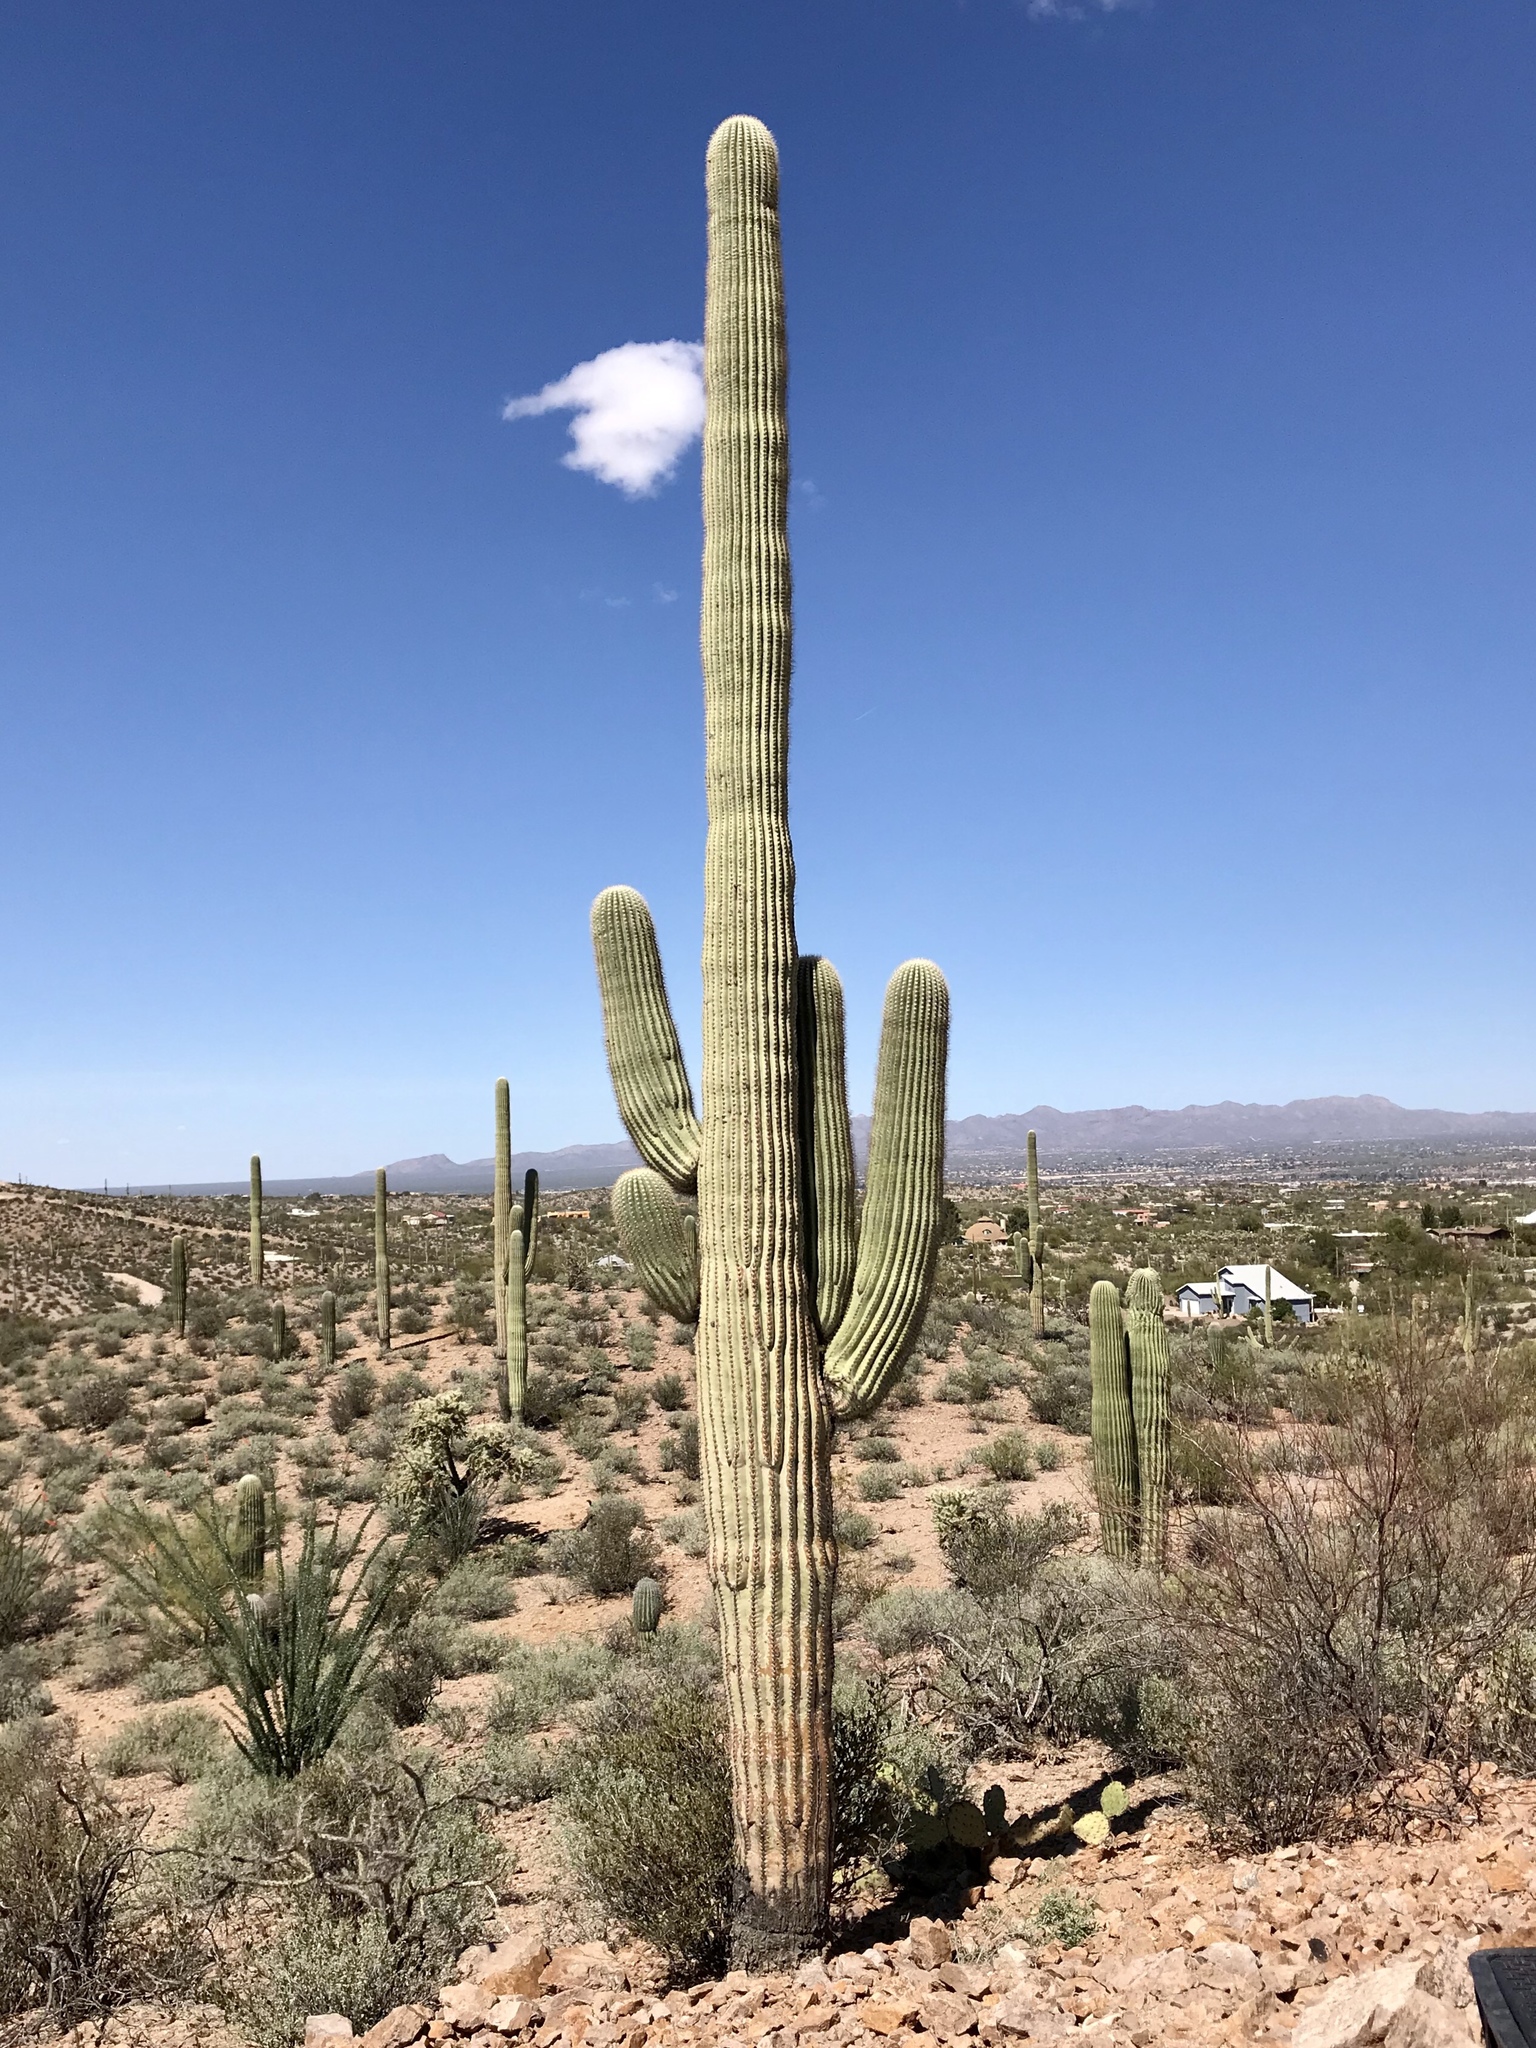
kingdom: Plantae
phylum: Tracheophyta
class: Magnoliopsida
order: Caryophyllales
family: Cactaceae
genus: Carnegiea
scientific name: Carnegiea gigantea
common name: Saguaro
